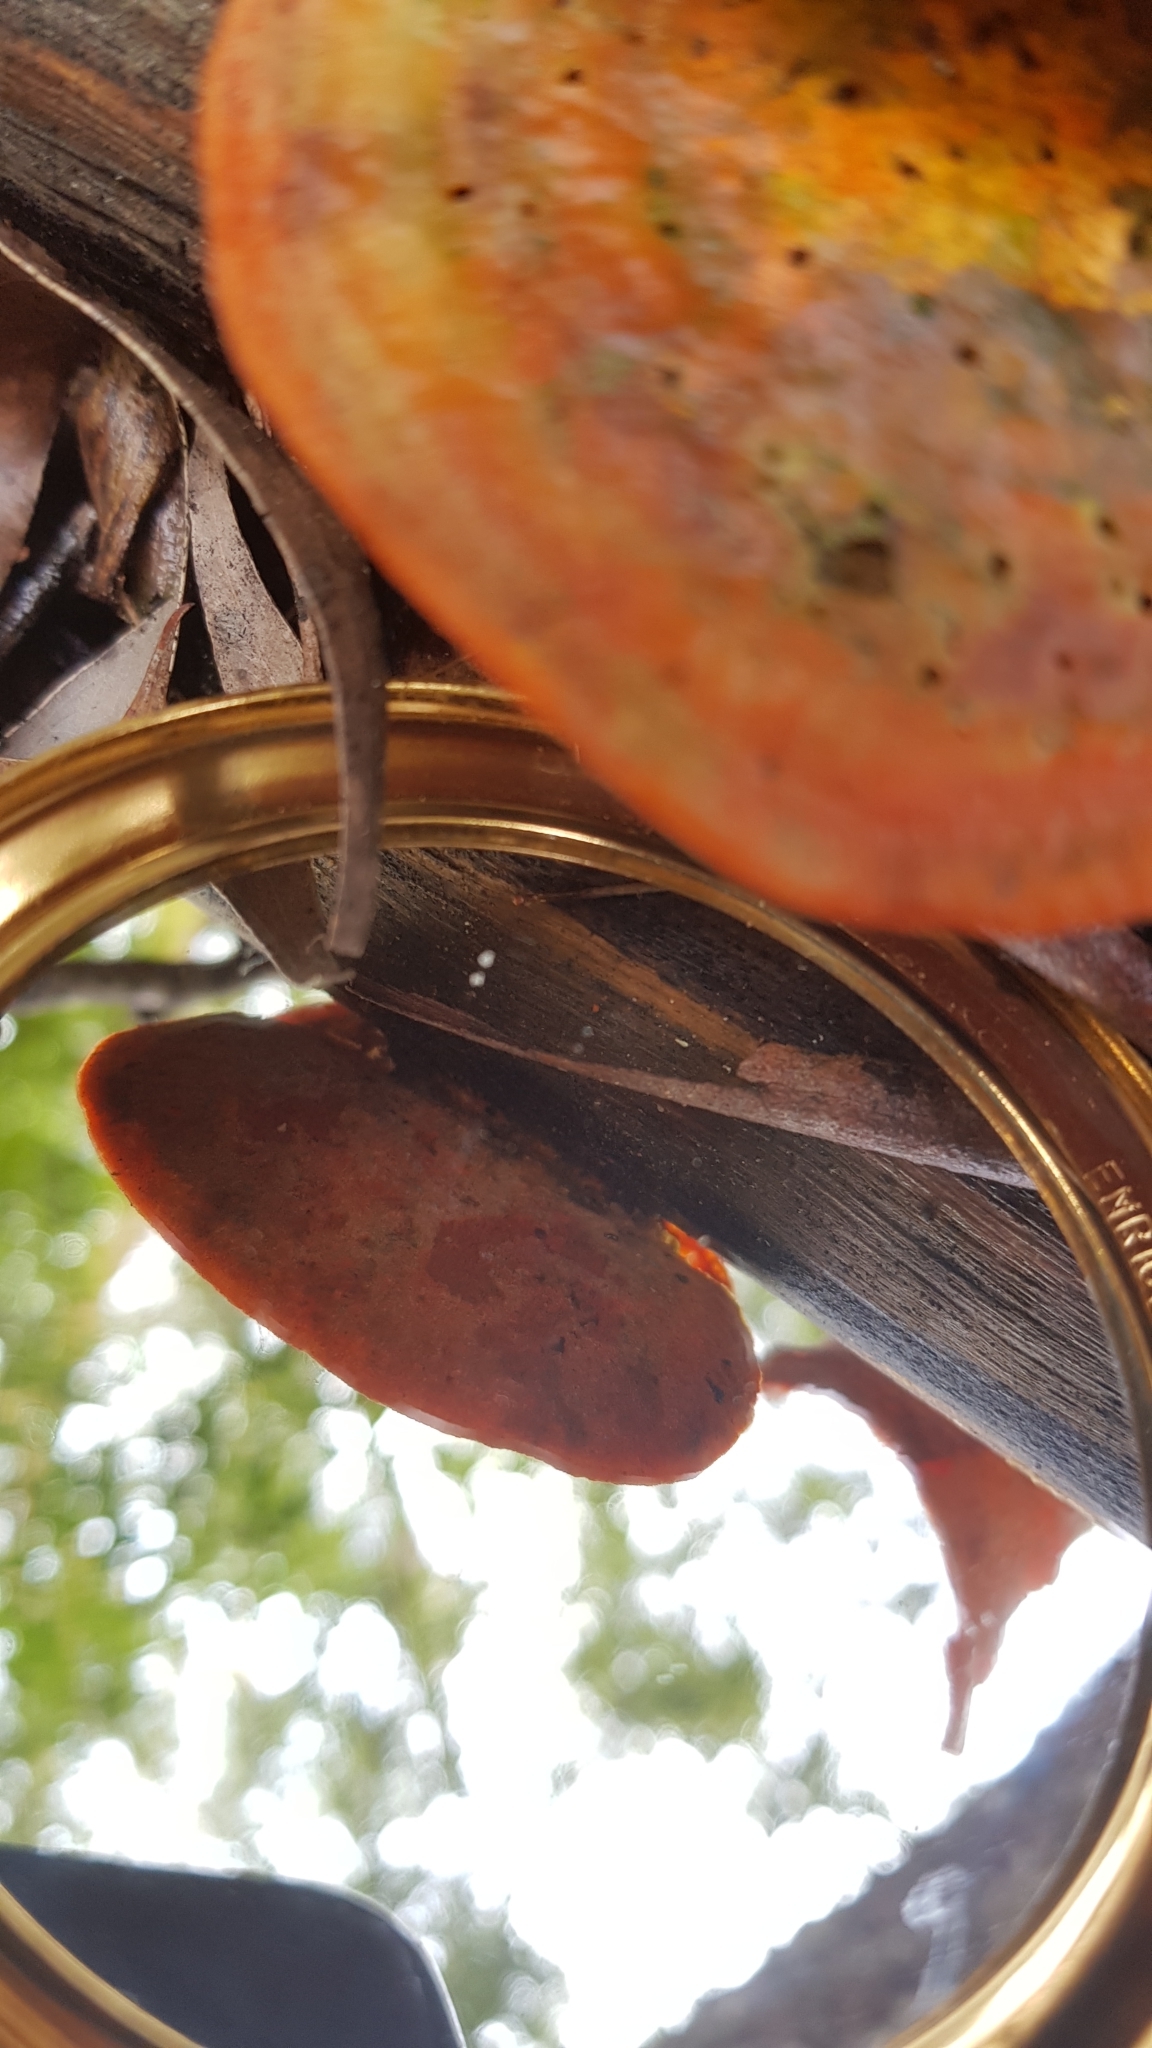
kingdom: Fungi
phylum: Basidiomycota
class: Agaricomycetes
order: Polyporales
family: Polyporaceae
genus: Trametes
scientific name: Trametes coccinea
